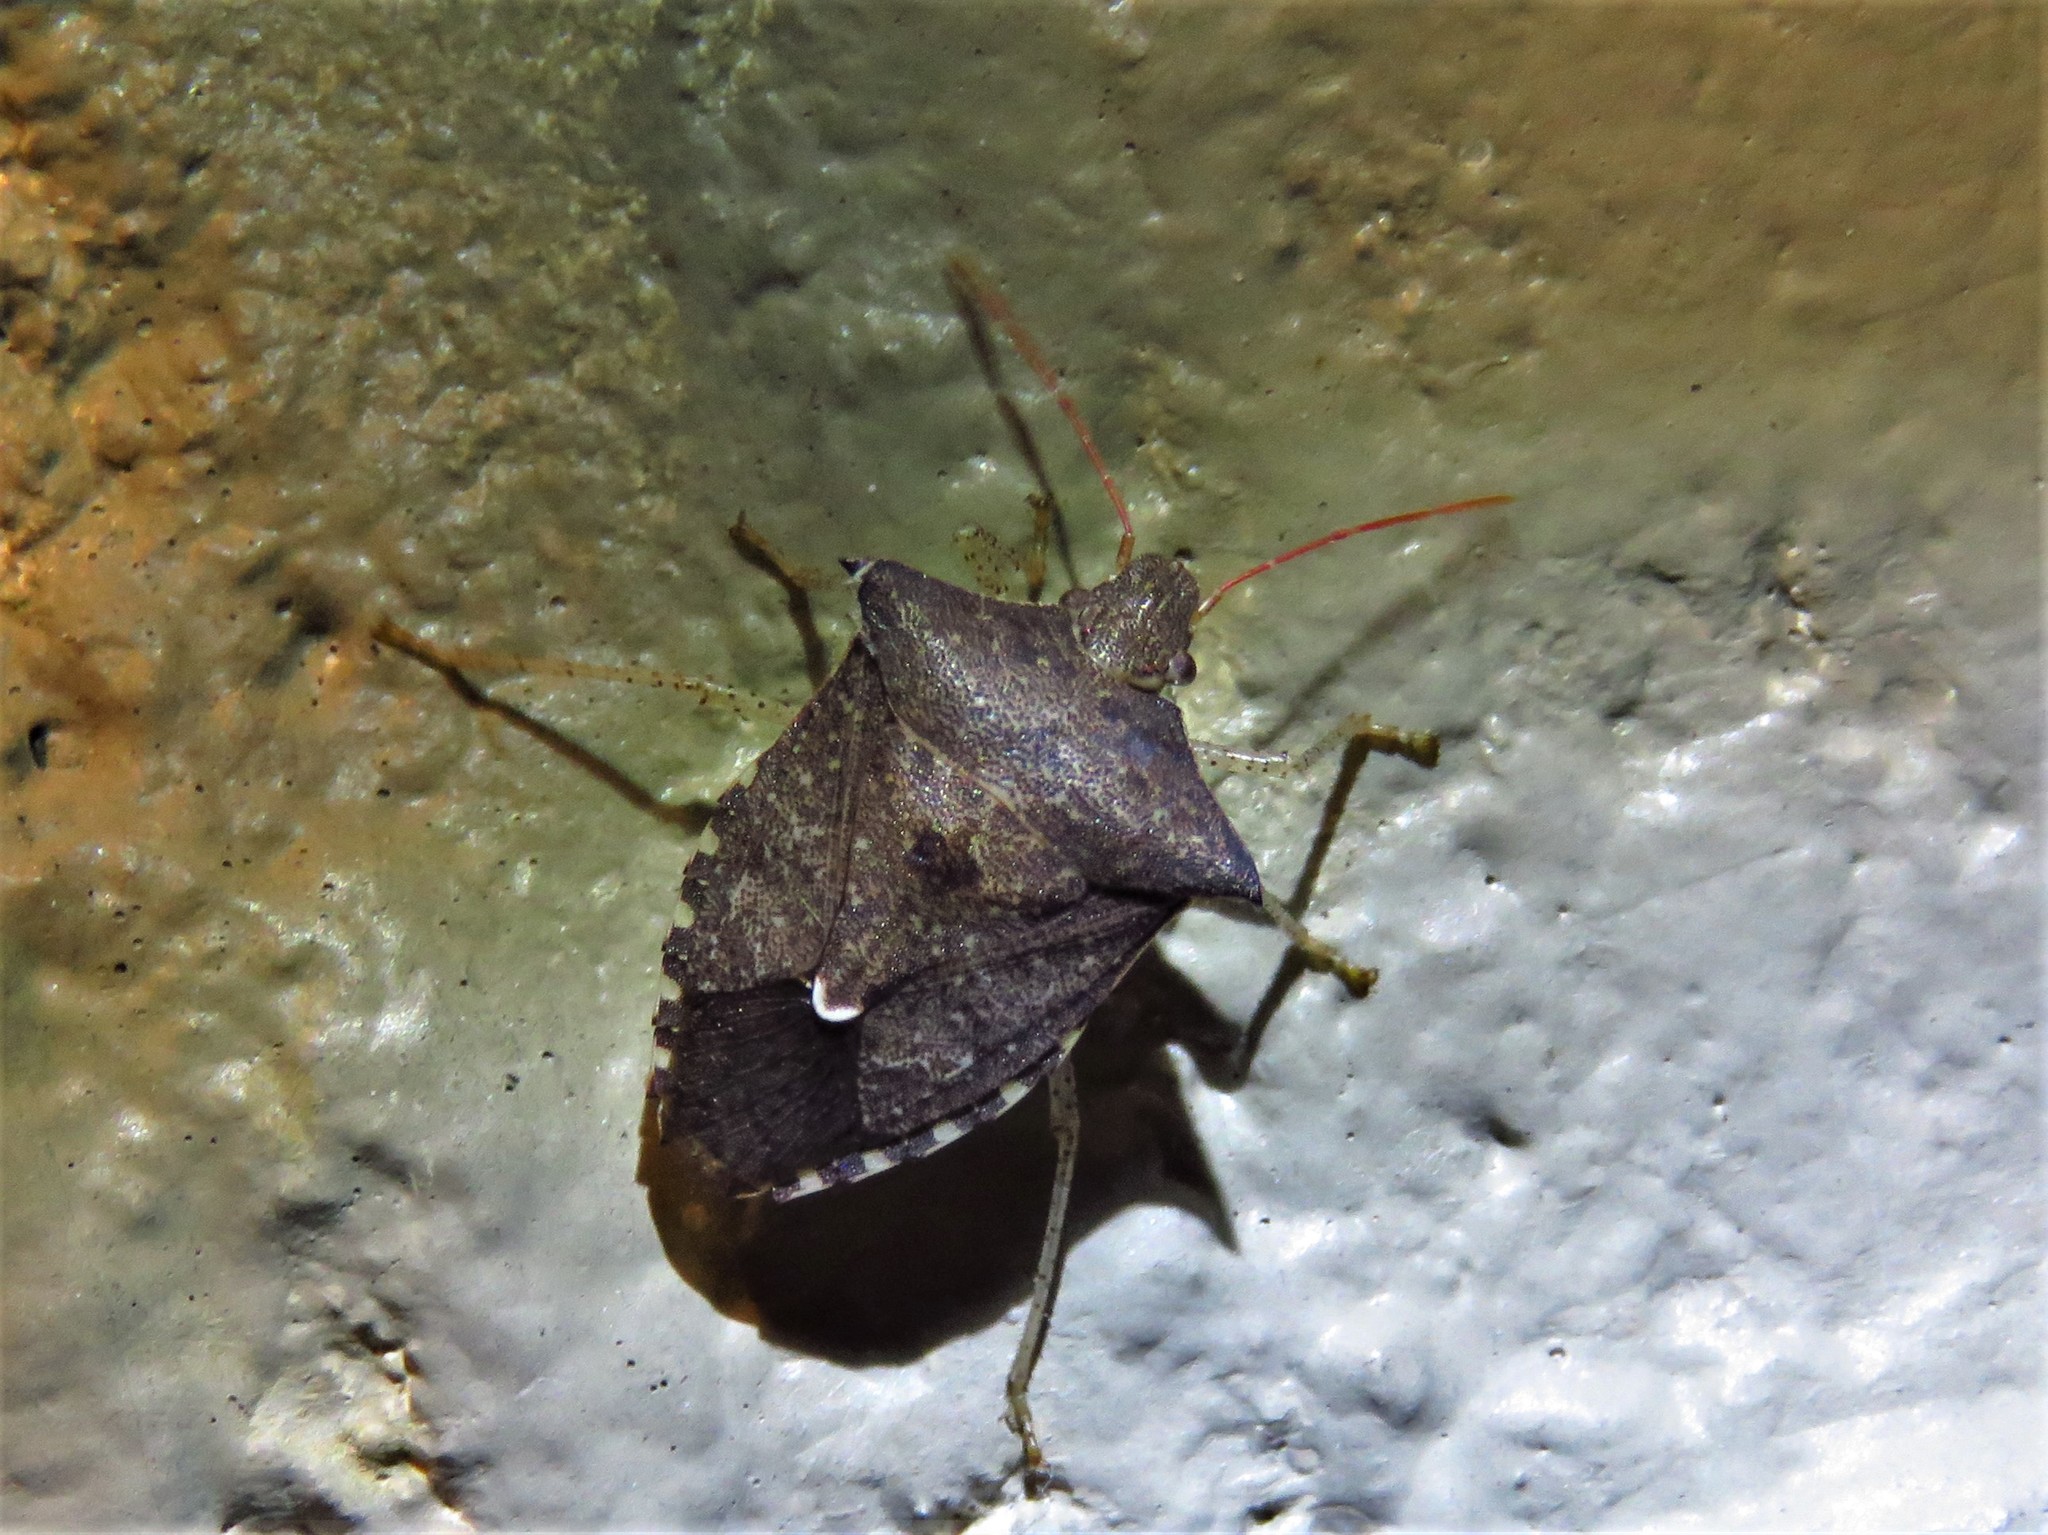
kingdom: Animalia
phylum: Arthropoda
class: Insecta
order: Hemiptera
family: Pentatomidae
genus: Euschistus
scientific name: Euschistus tristigmus
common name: Dusky stink bug
